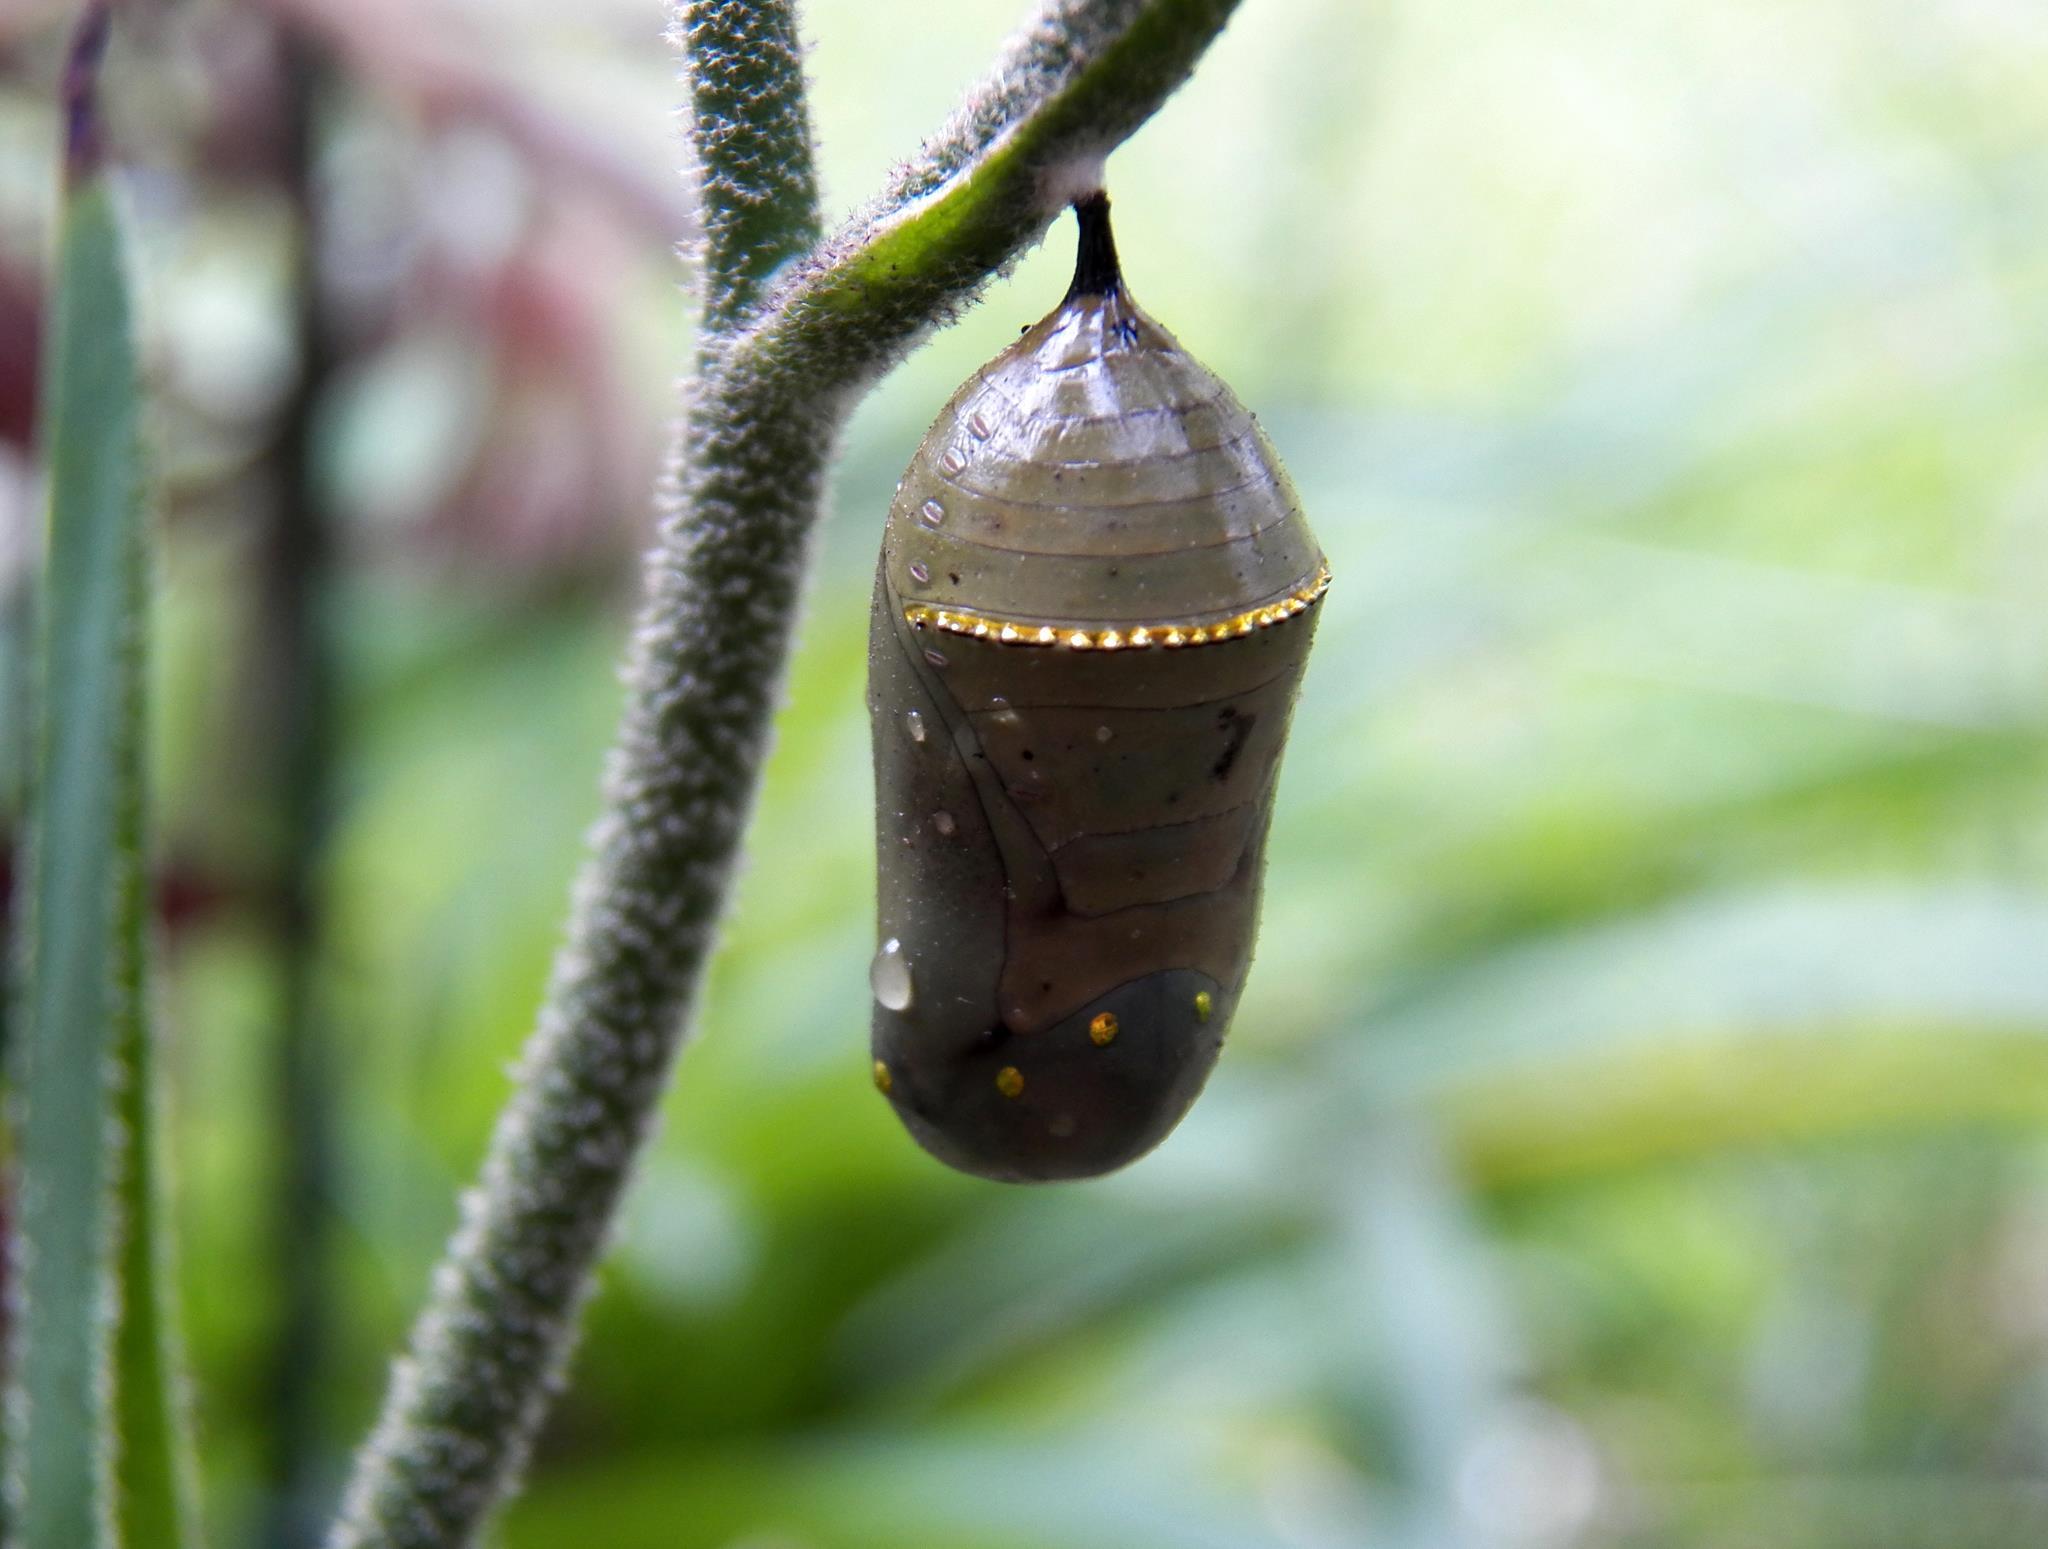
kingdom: Animalia
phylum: Arthropoda
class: Insecta
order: Lepidoptera
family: Nymphalidae
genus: Danaus
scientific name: Danaus plexippus
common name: Monarch
